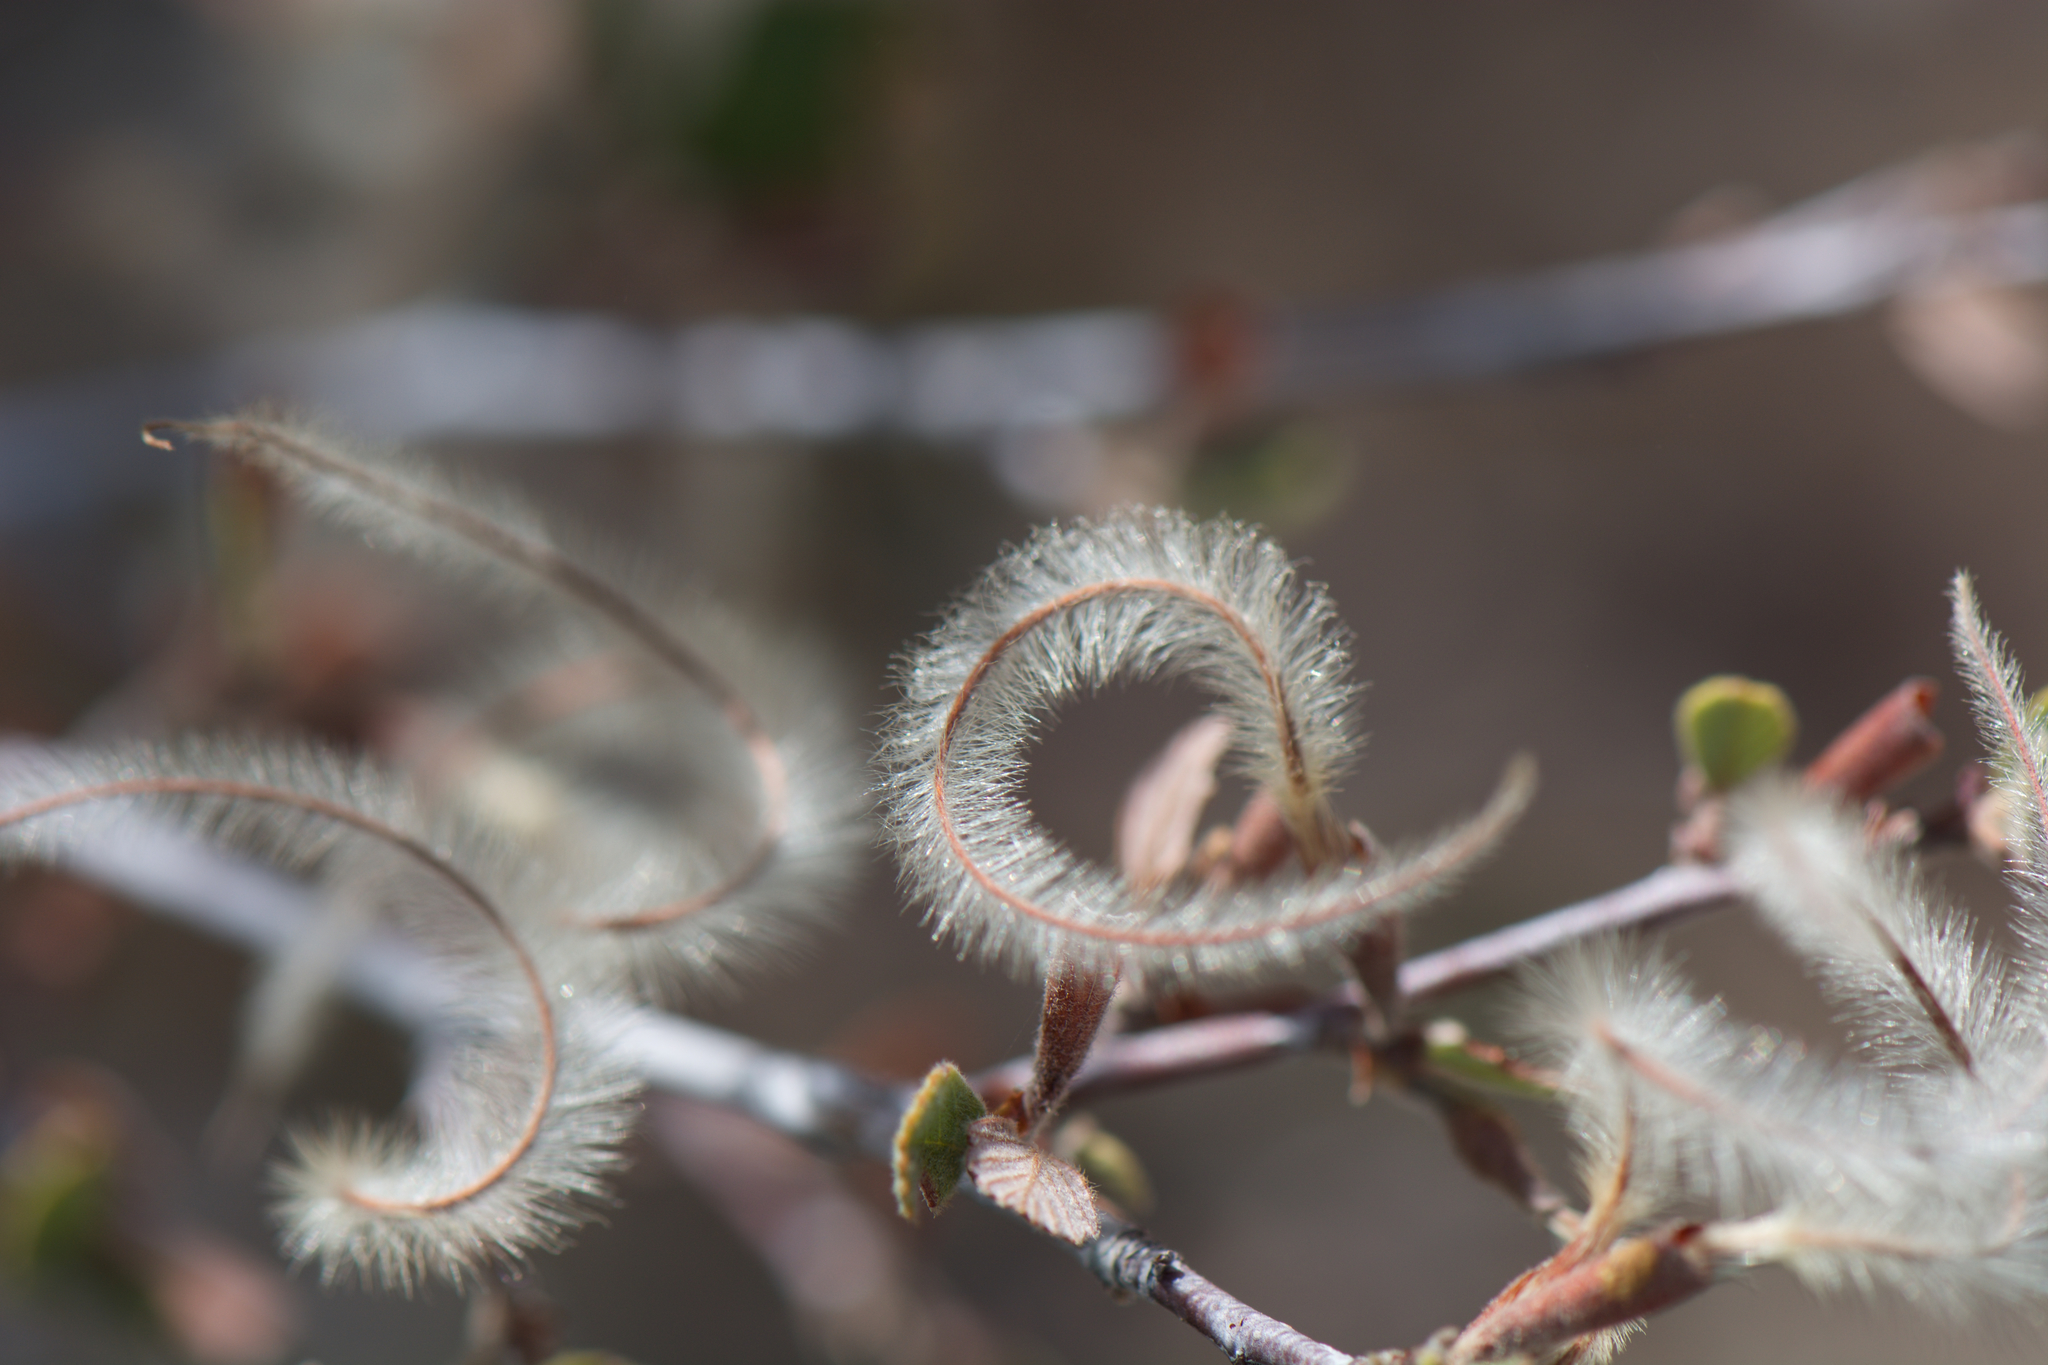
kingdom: Plantae
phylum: Tracheophyta
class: Magnoliopsida
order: Rosales
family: Rosaceae
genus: Cercocarpus
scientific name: Cercocarpus betuloides
